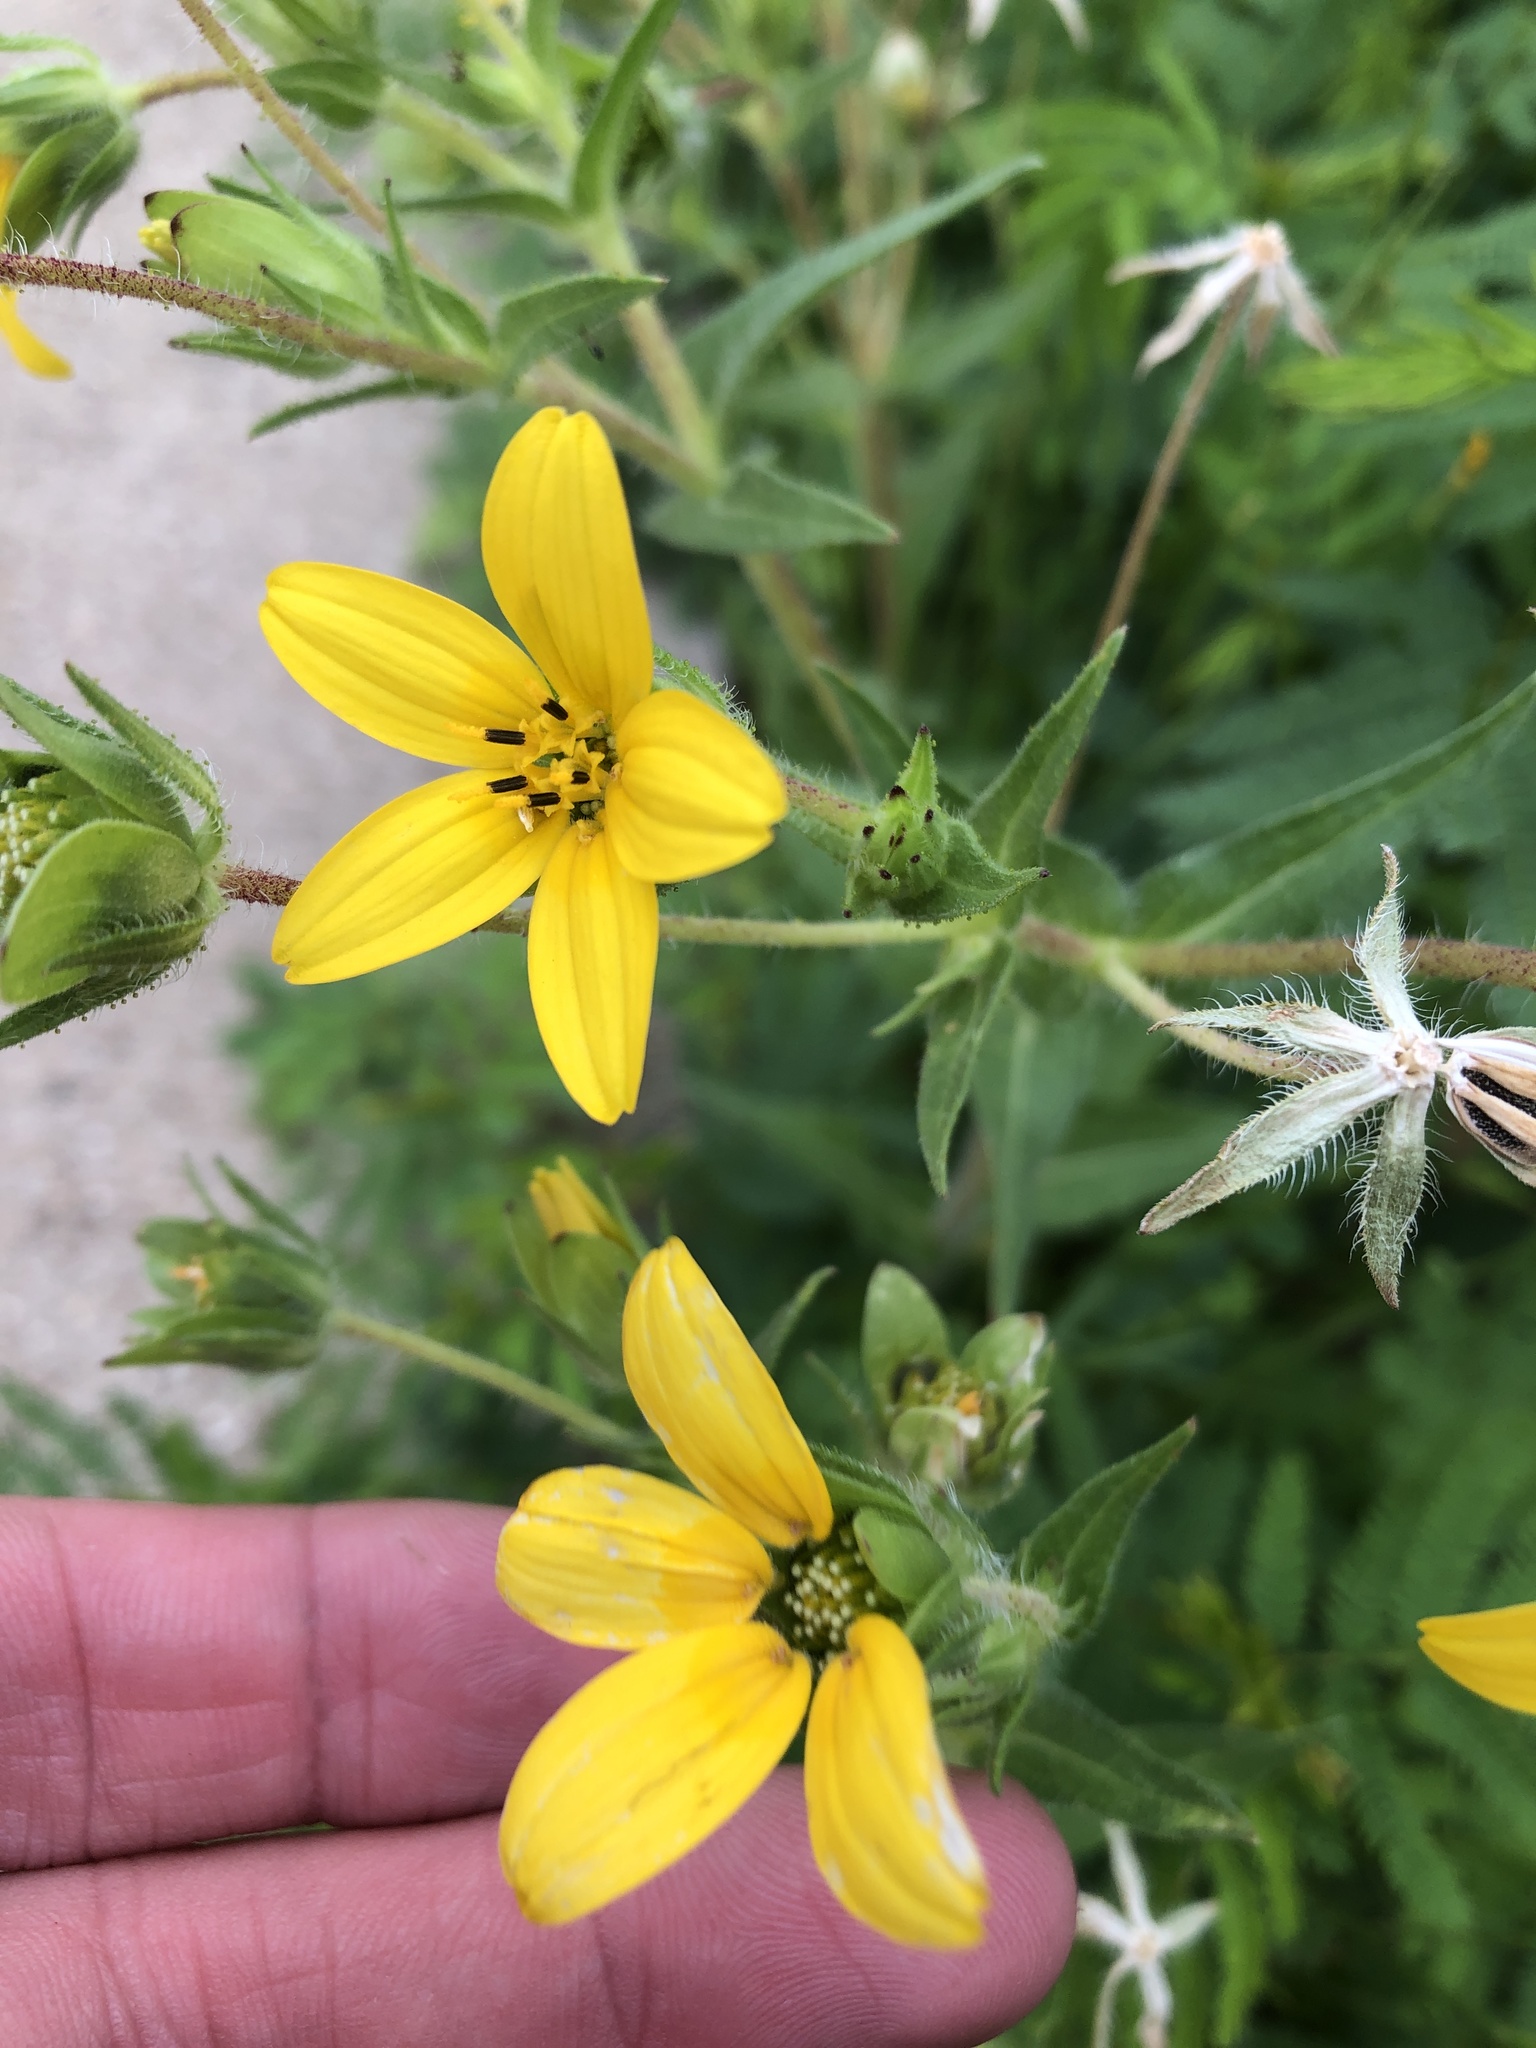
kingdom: Plantae
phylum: Tracheophyta
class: Magnoliopsida
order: Asterales
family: Asteraceae
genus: Lindheimera
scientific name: Lindheimera texana
